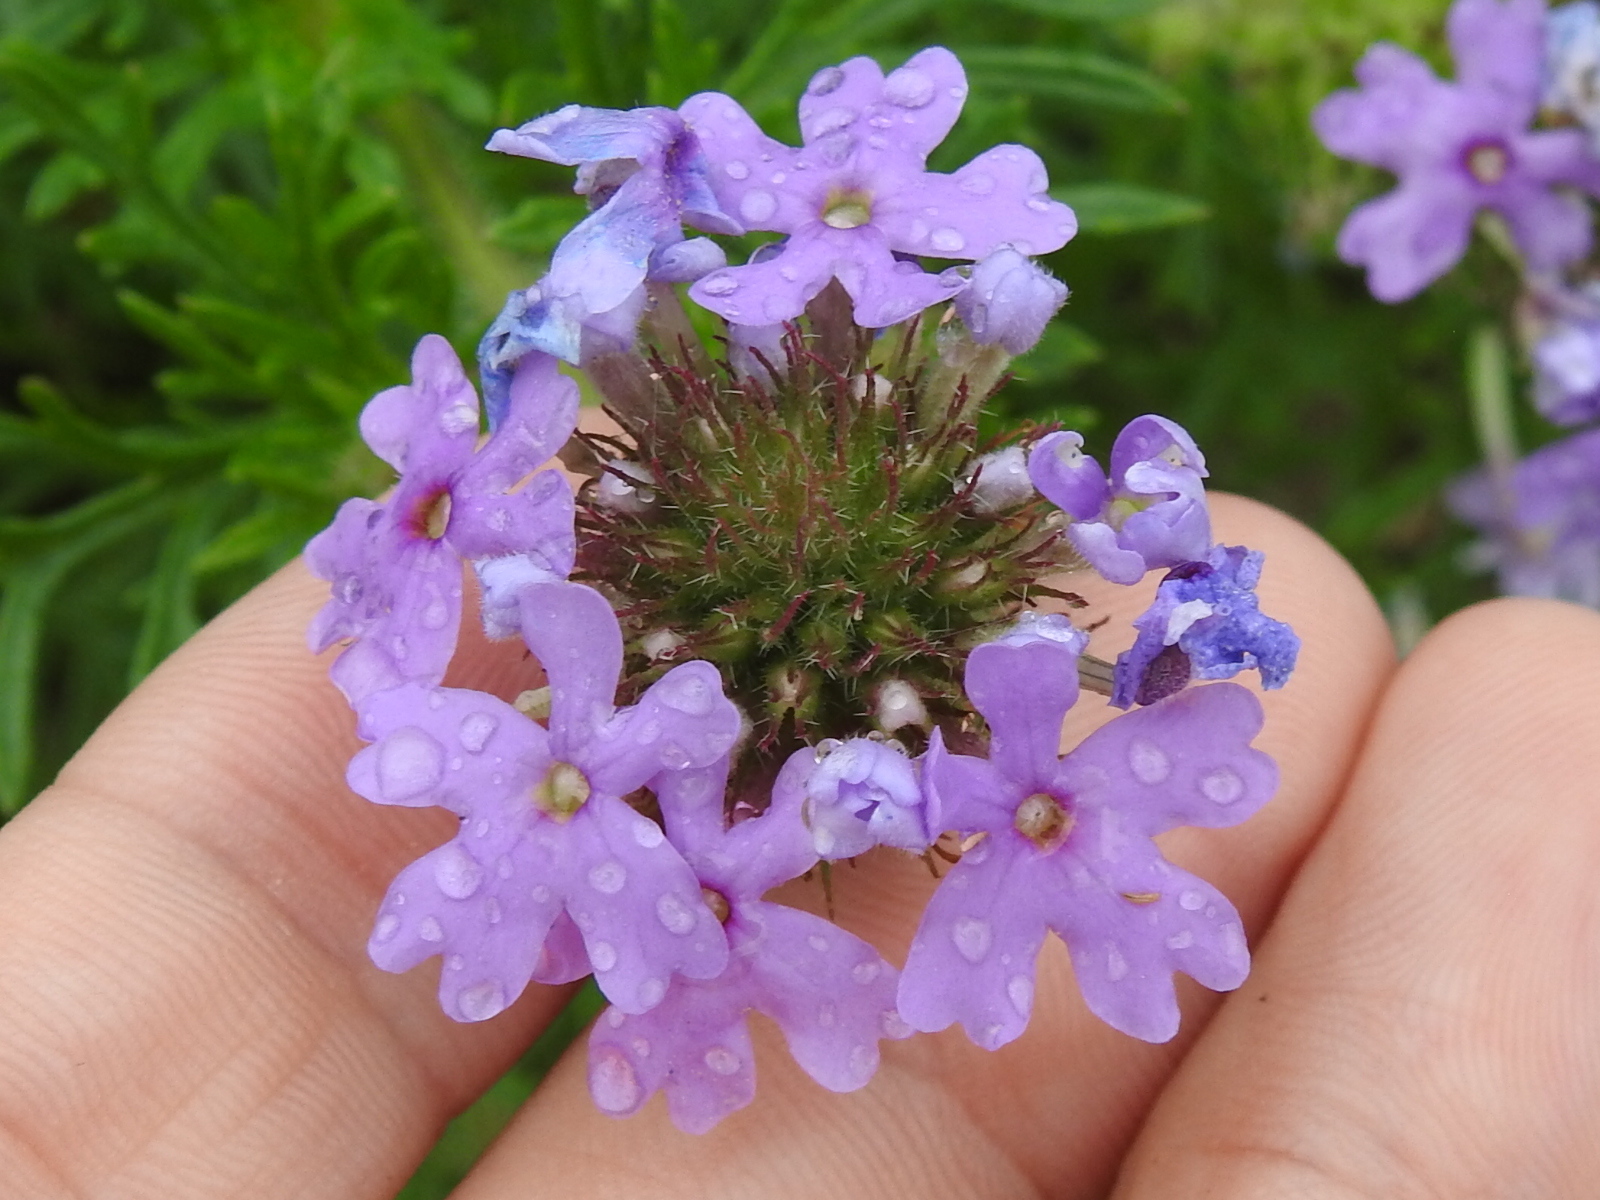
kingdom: Plantae
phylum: Tracheophyta
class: Magnoliopsida
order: Lamiales
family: Verbenaceae
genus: Verbena
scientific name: Verbena bipinnatifida
